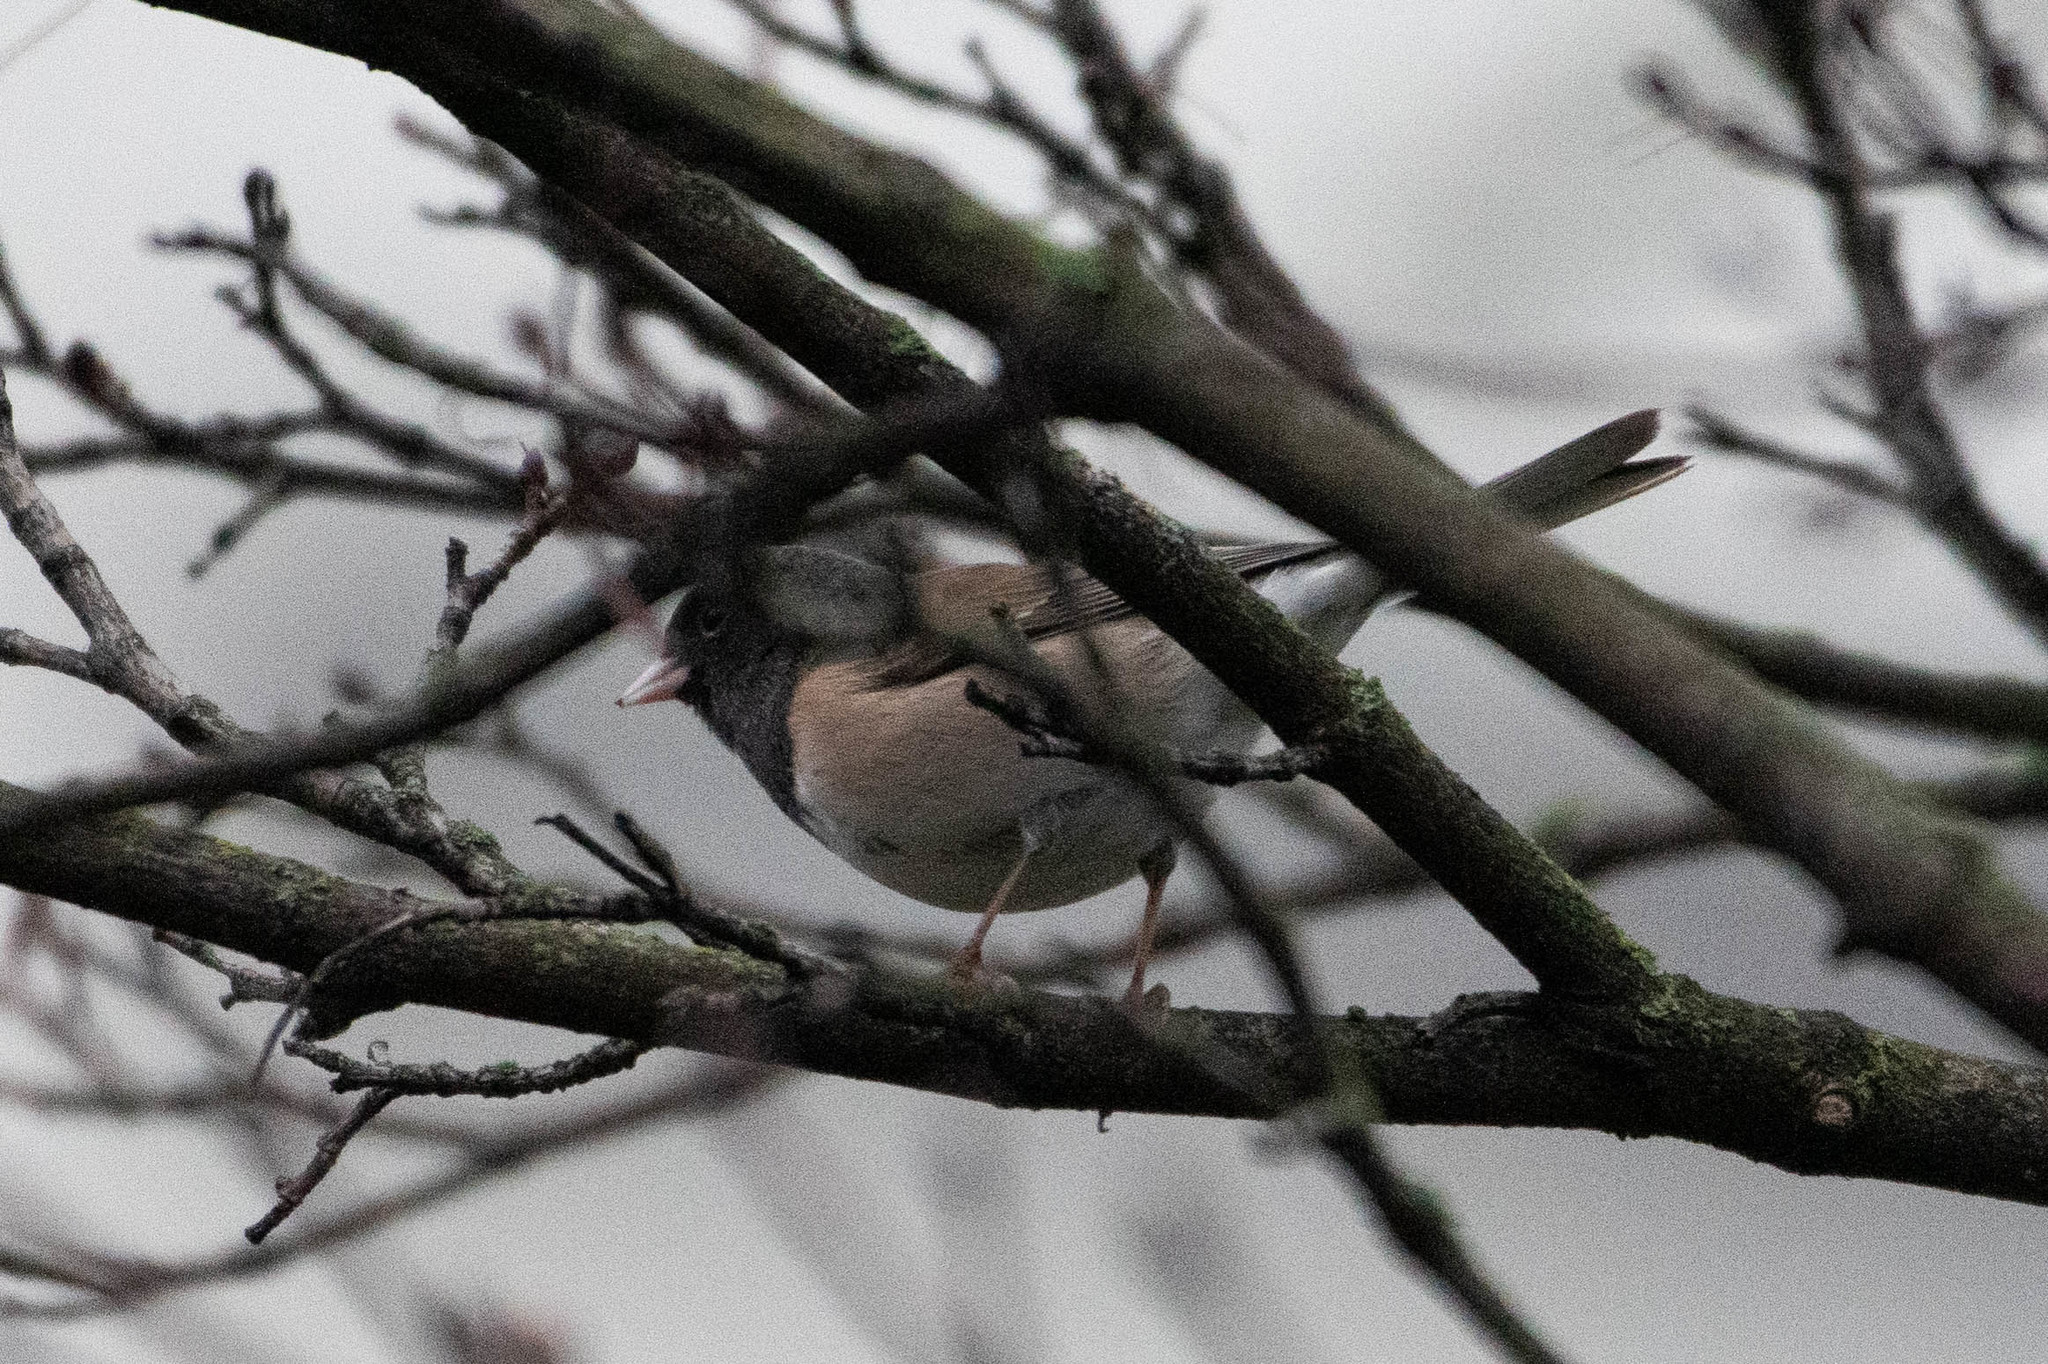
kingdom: Animalia
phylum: Chordata
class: Aves
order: Passeriformes
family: Passerellidae
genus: Junco
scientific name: Junco hyemalis
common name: Dark-eyed junco
